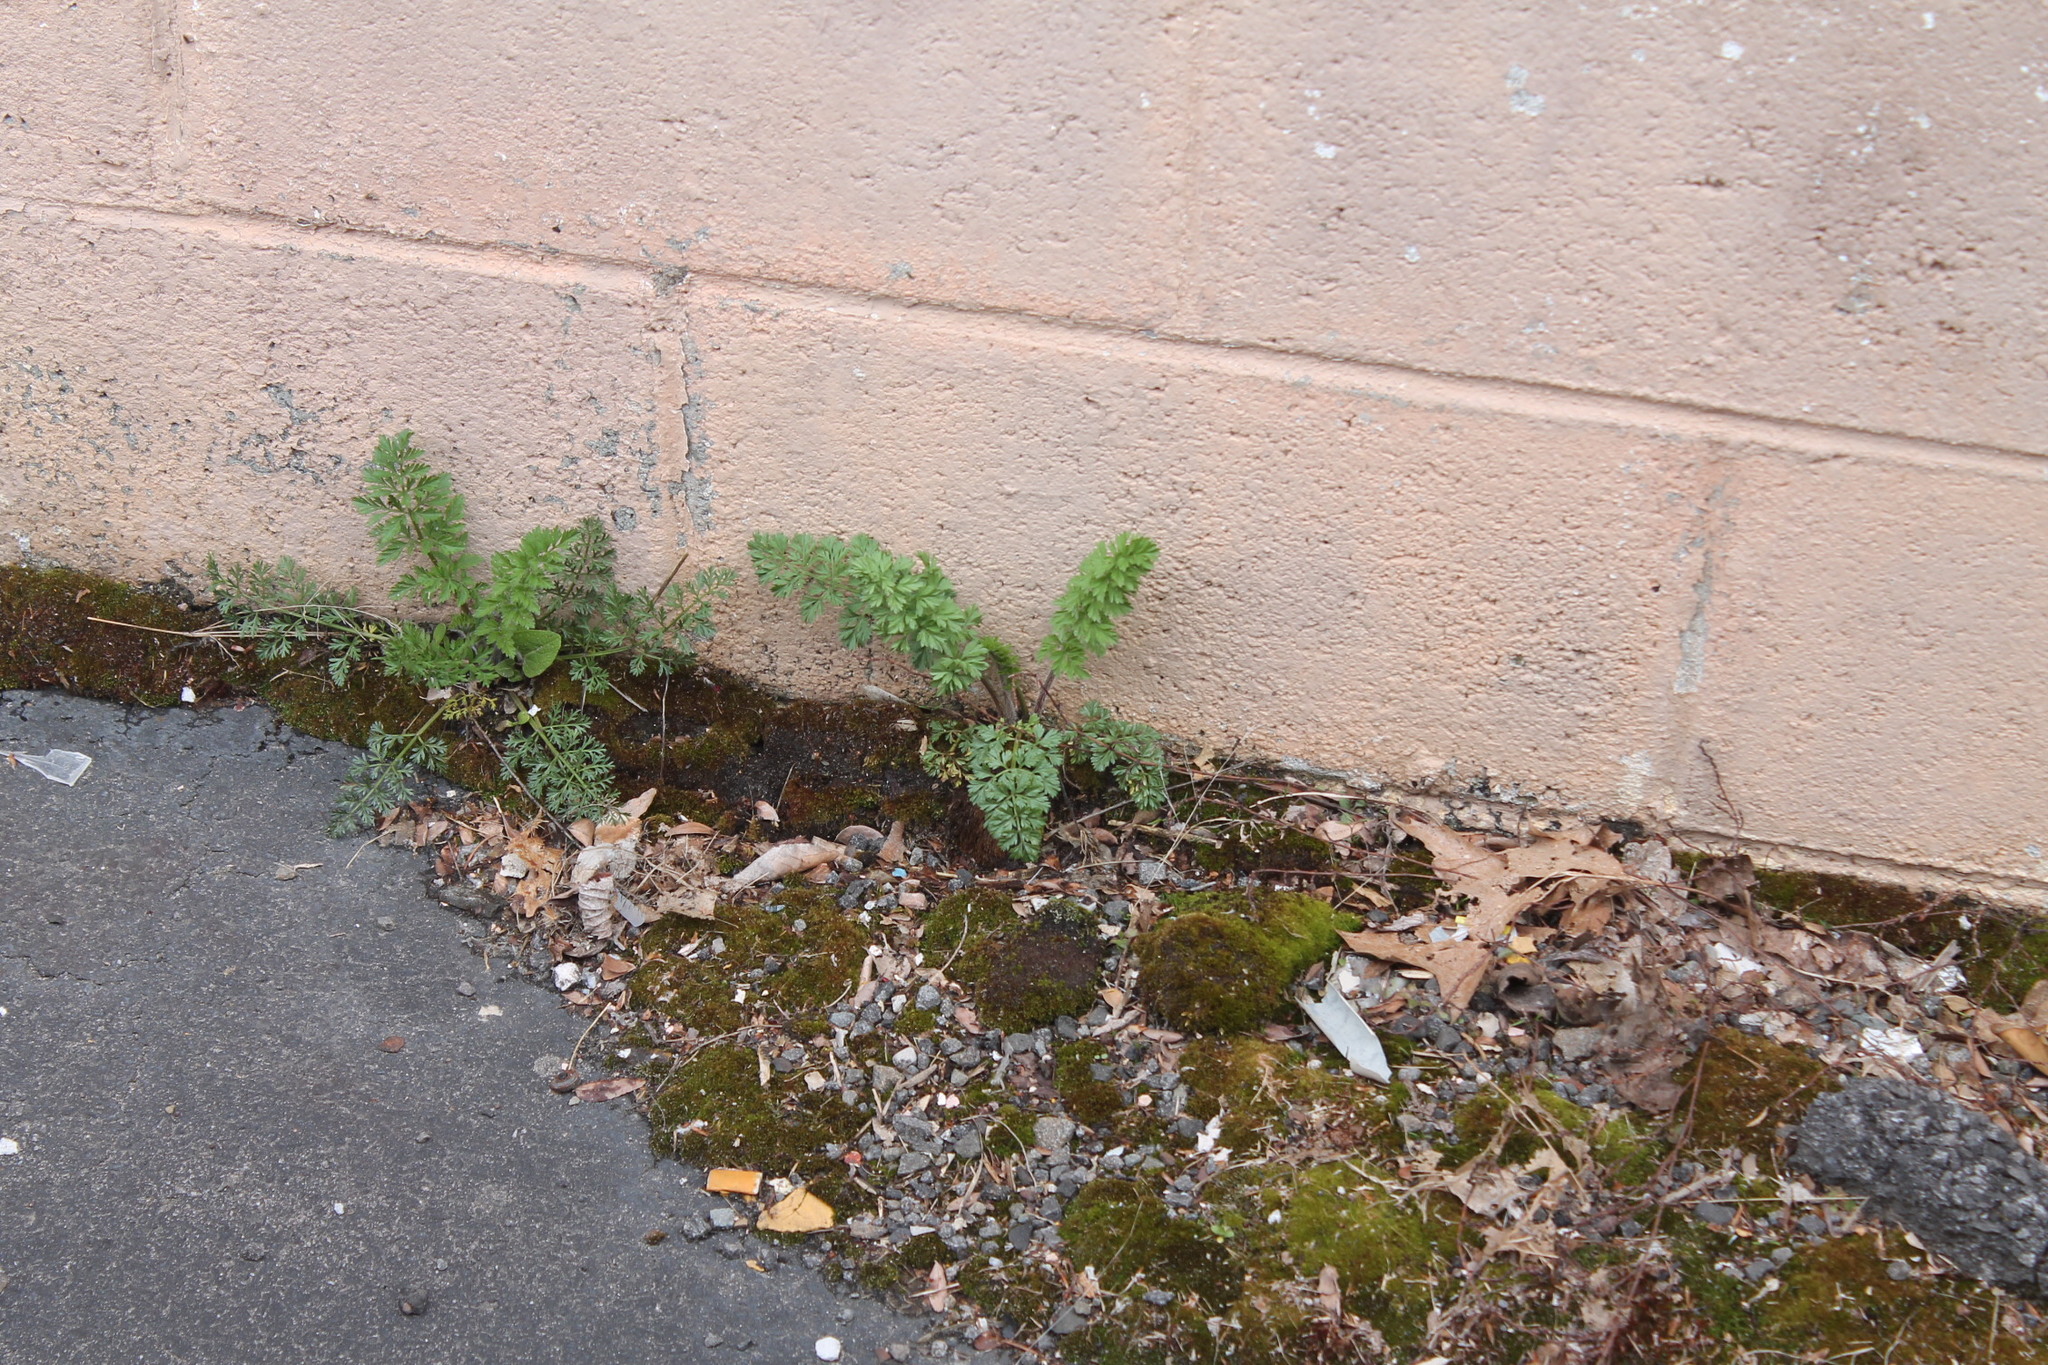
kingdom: Plantae
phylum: Tracheophyta
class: Magnoliopsida
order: Apiales
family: Apiaceae
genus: Daucus
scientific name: Daucus carota
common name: Wild carrot
